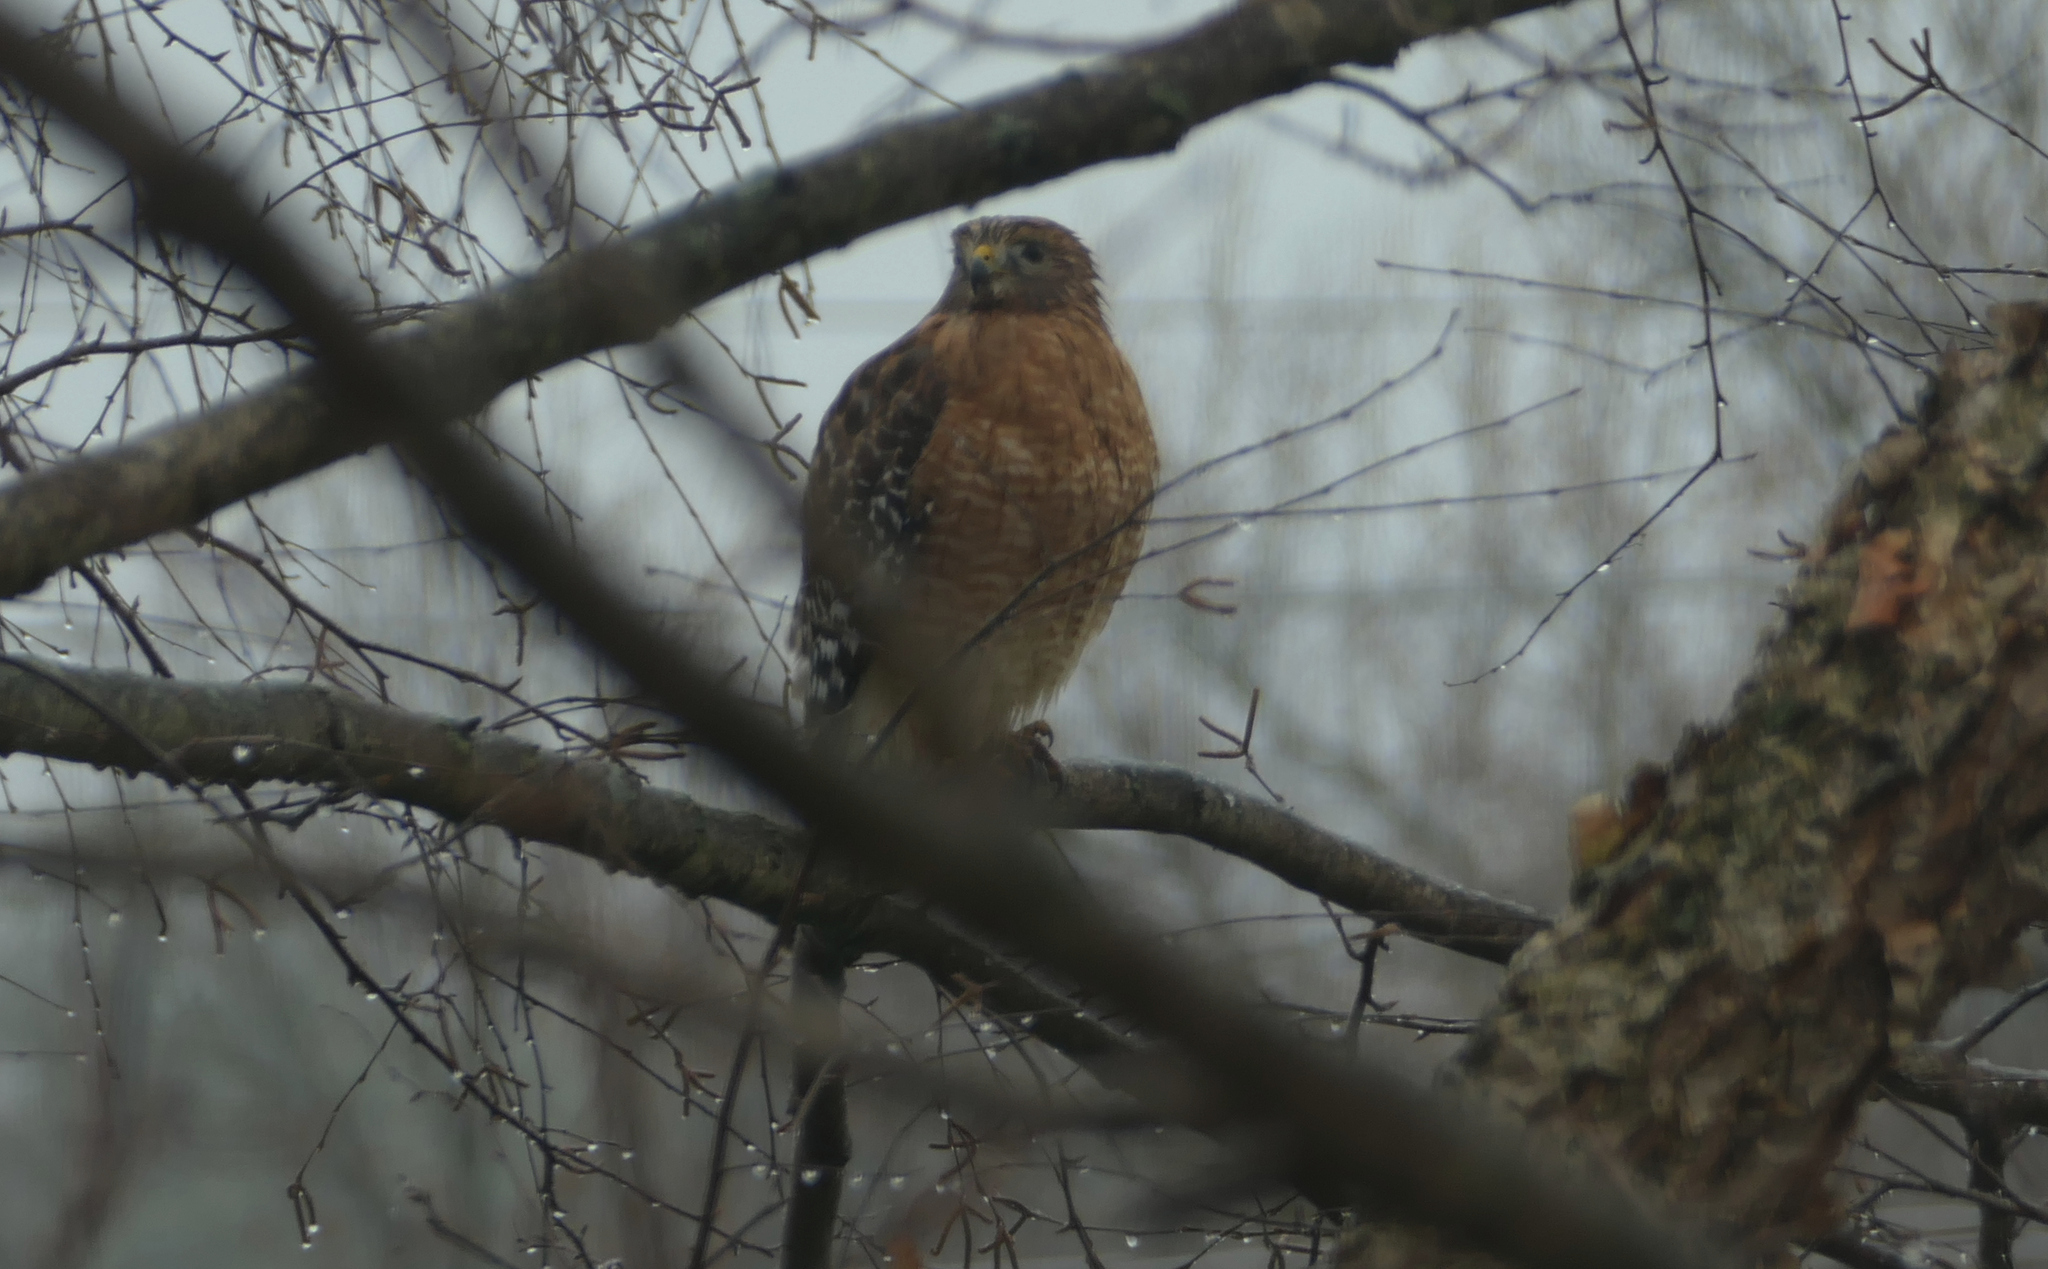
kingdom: Animalia
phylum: Chordata
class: Aves
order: Accipitriformes
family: Accipitridae
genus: Buteo
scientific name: Buteo lineatus
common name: Red-shouldered hawk
